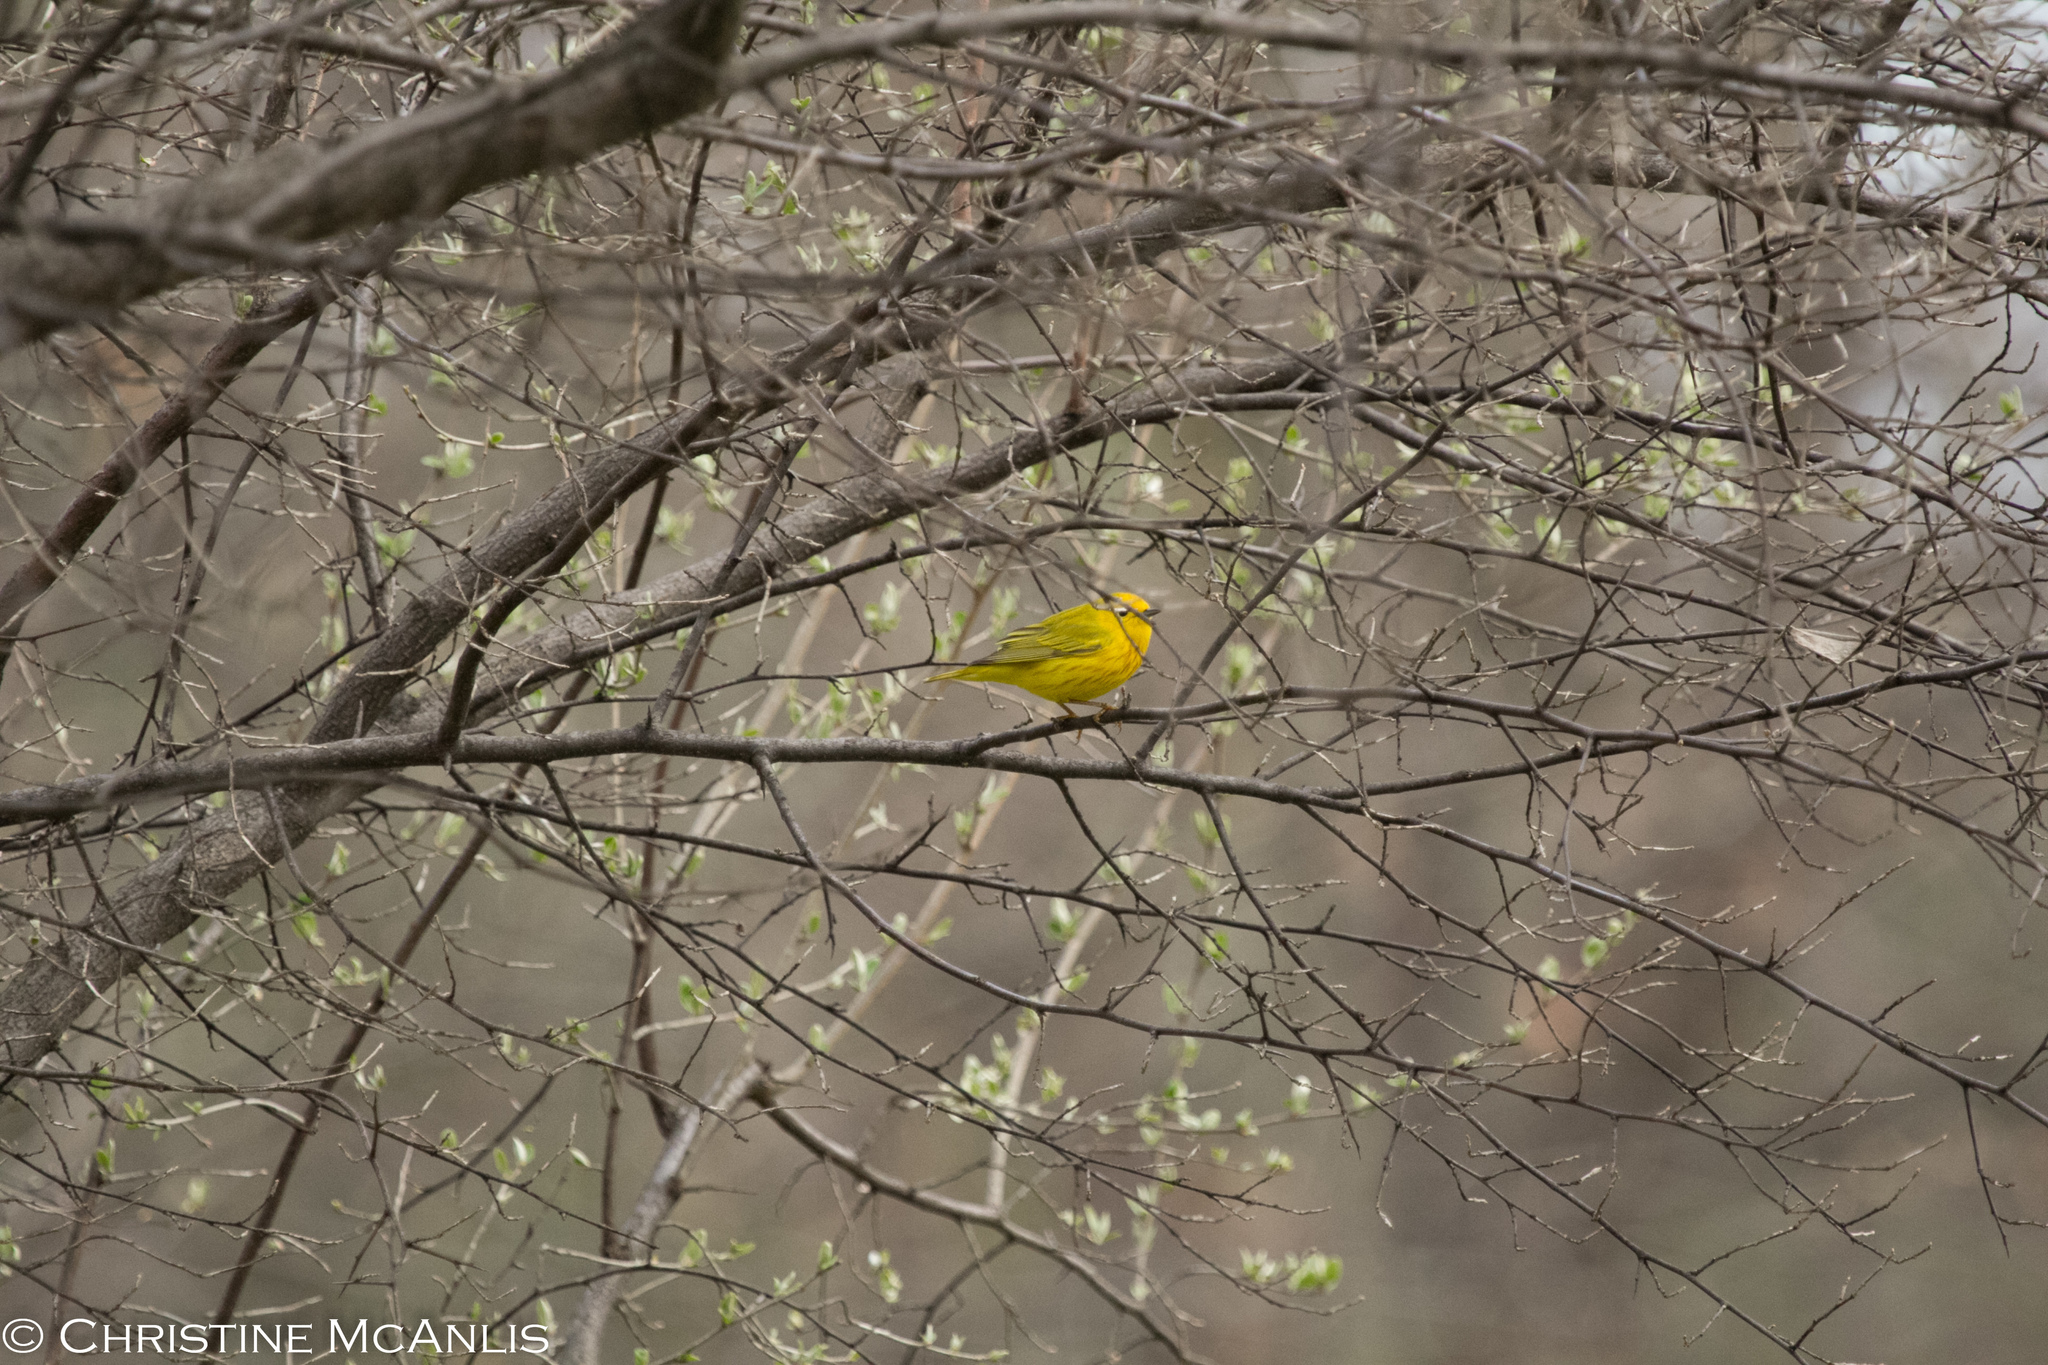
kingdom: Animalia
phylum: Chordata
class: Aves
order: Passeriformes
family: Parulidae
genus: Setophaga
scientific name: Setophaga petechia
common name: Yellow warbler
